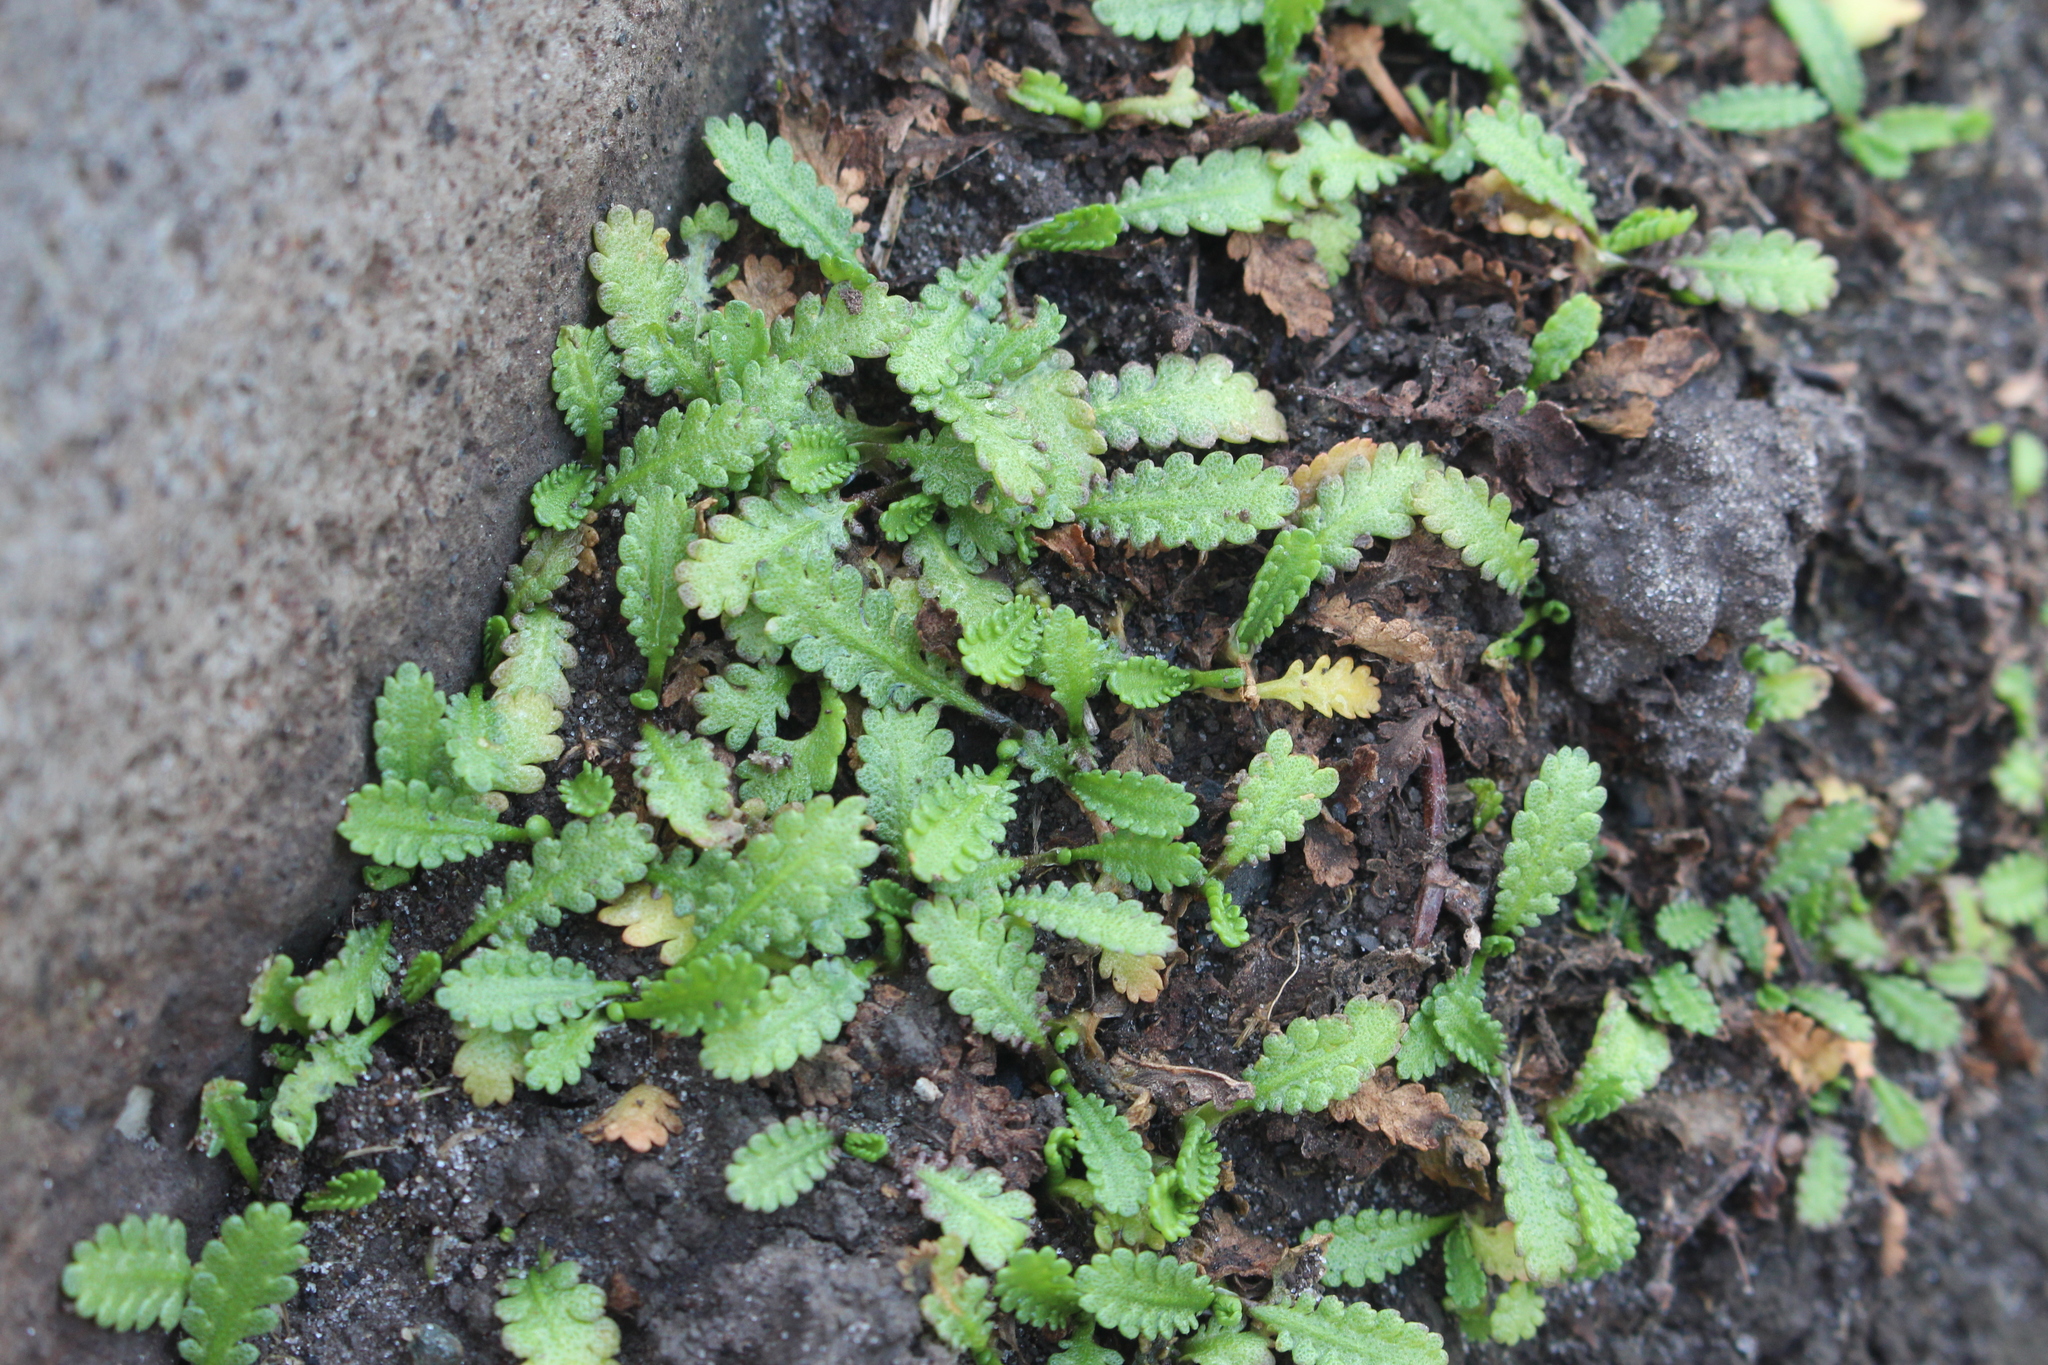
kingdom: Plantae
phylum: Tracheophyta
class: Magnoliopsida
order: Asterales
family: Asteraceae
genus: Leptinella
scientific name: Leptinella dioica
